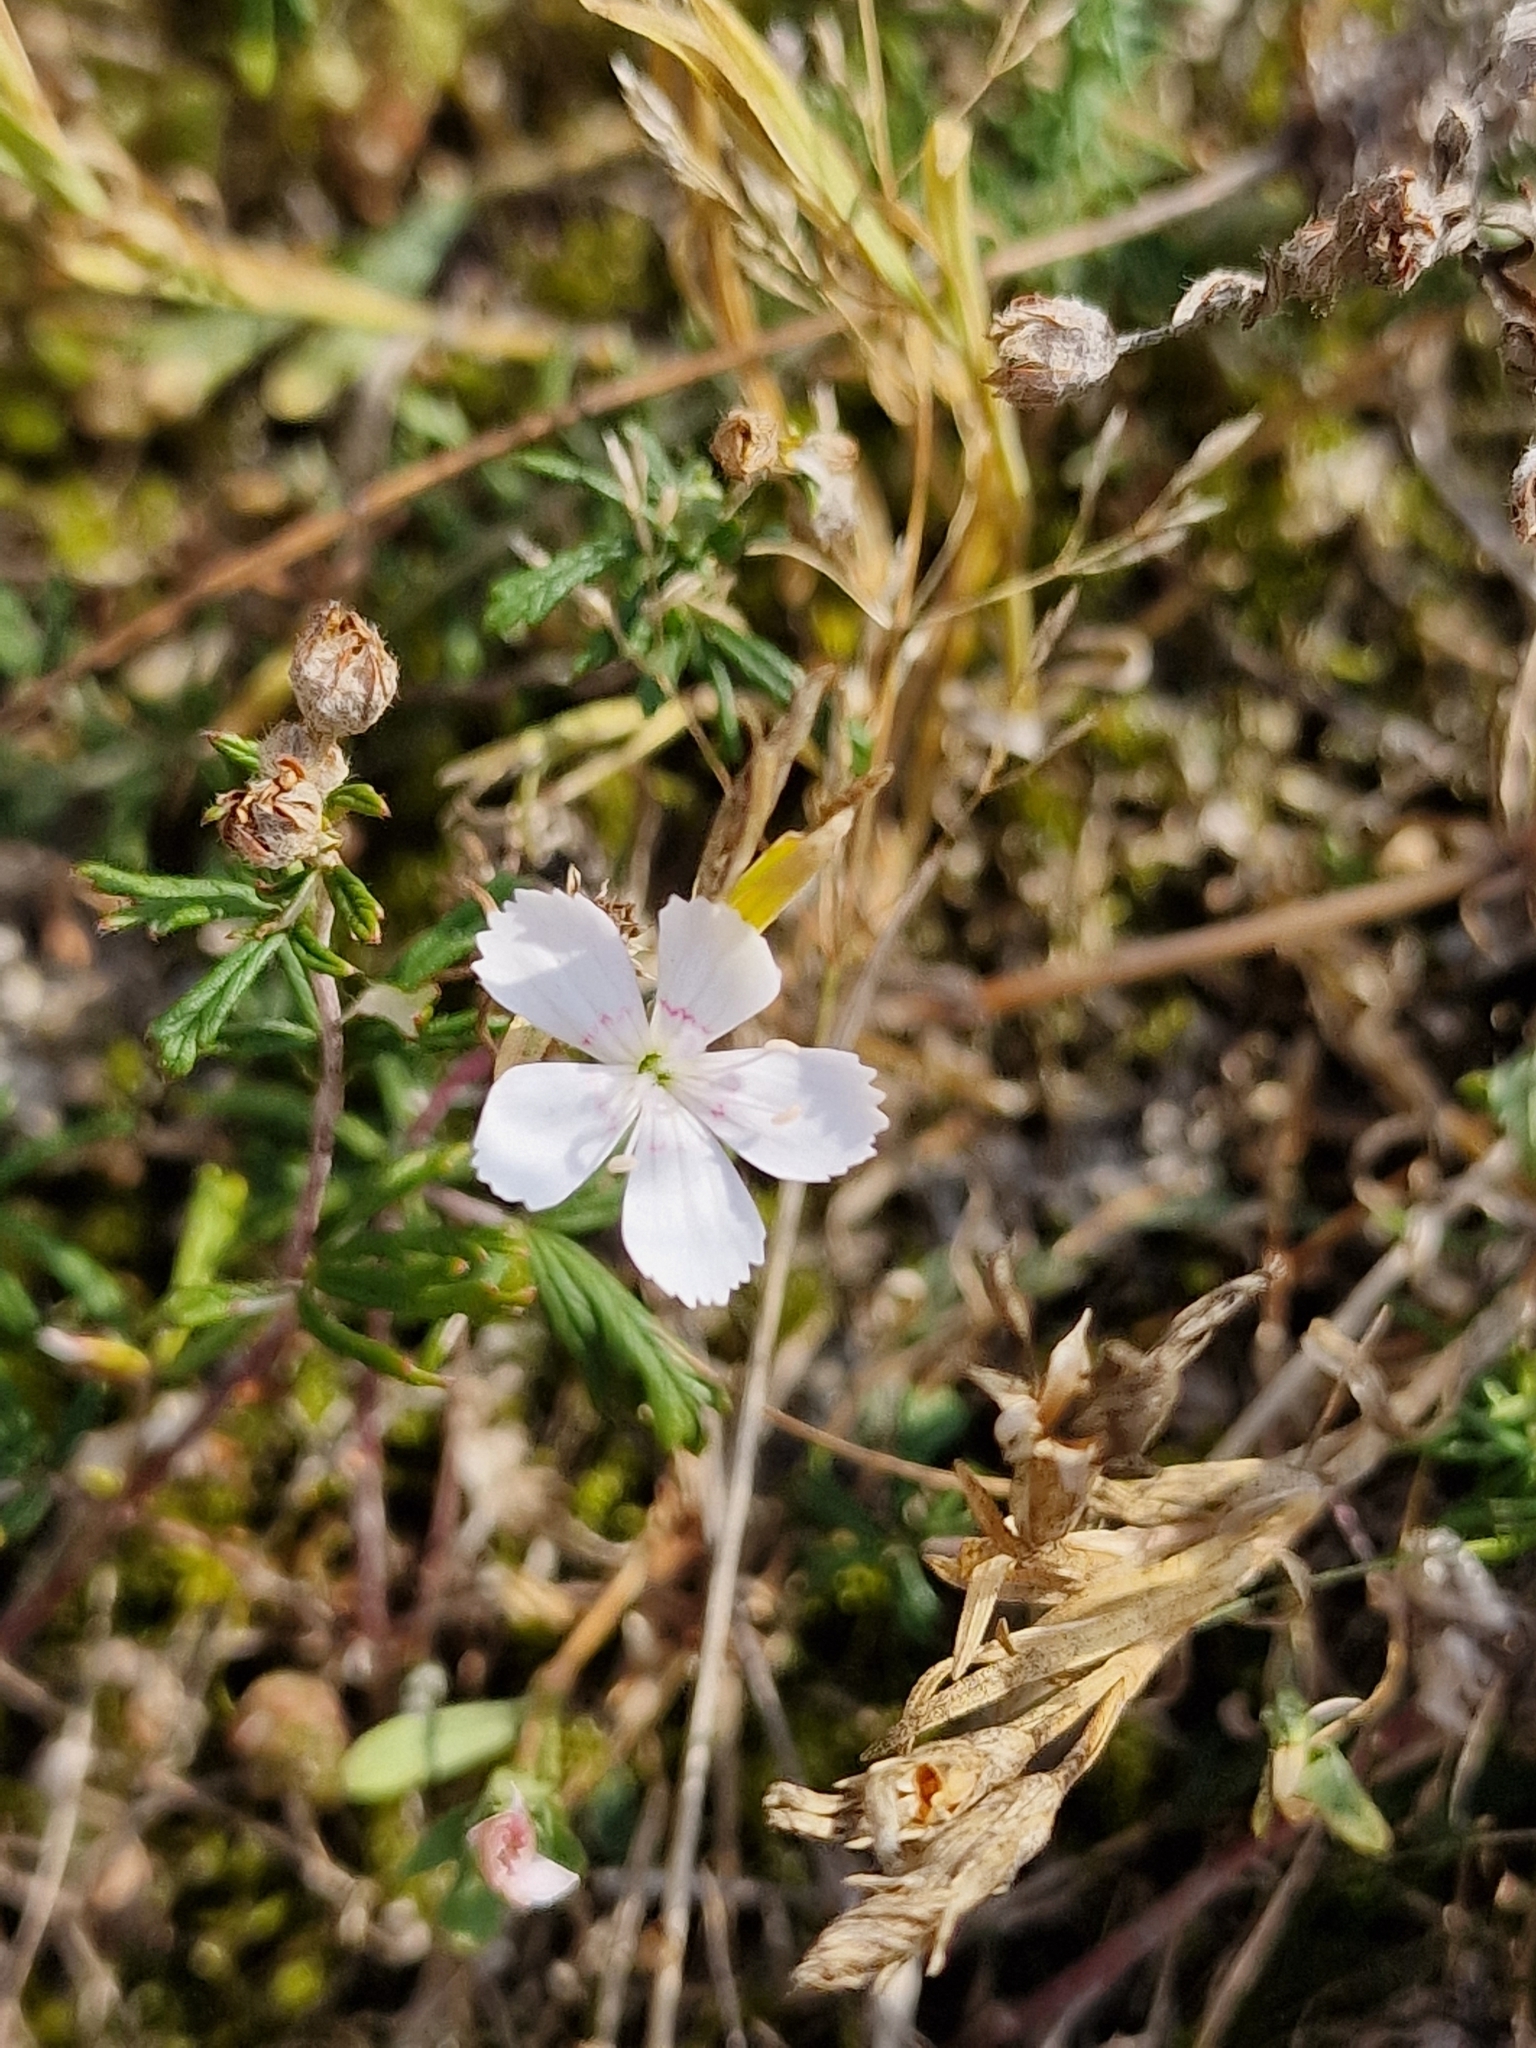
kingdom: Plantae
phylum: Tracheophyta
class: Magnoliopsida
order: Caryophyllales
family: Caryophyllaceae
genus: Dianthus
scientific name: Dianthus deltoides
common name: Maiden pink
